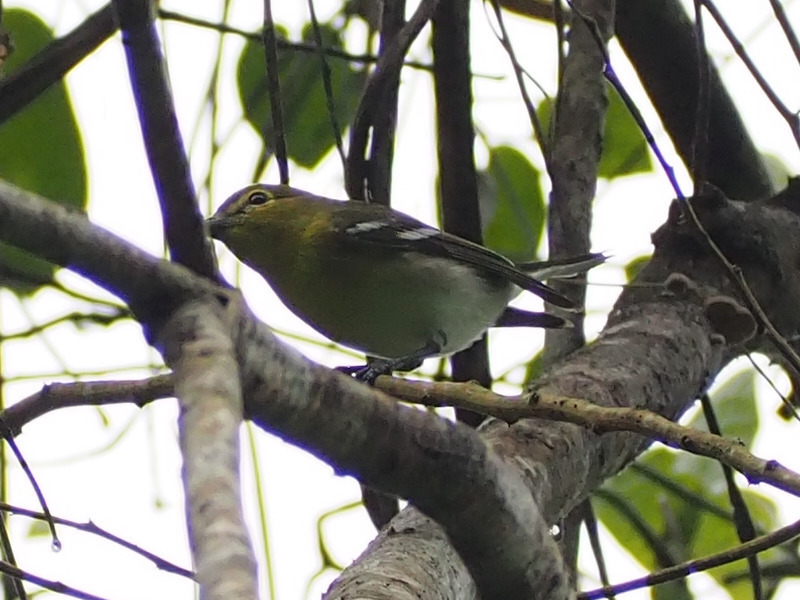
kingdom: Animalia
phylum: Chordata
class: Aves
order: Passeriformes
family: Vireonidae
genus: Vireo
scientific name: Vireo flavifrons
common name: Yellow-throated vireo
